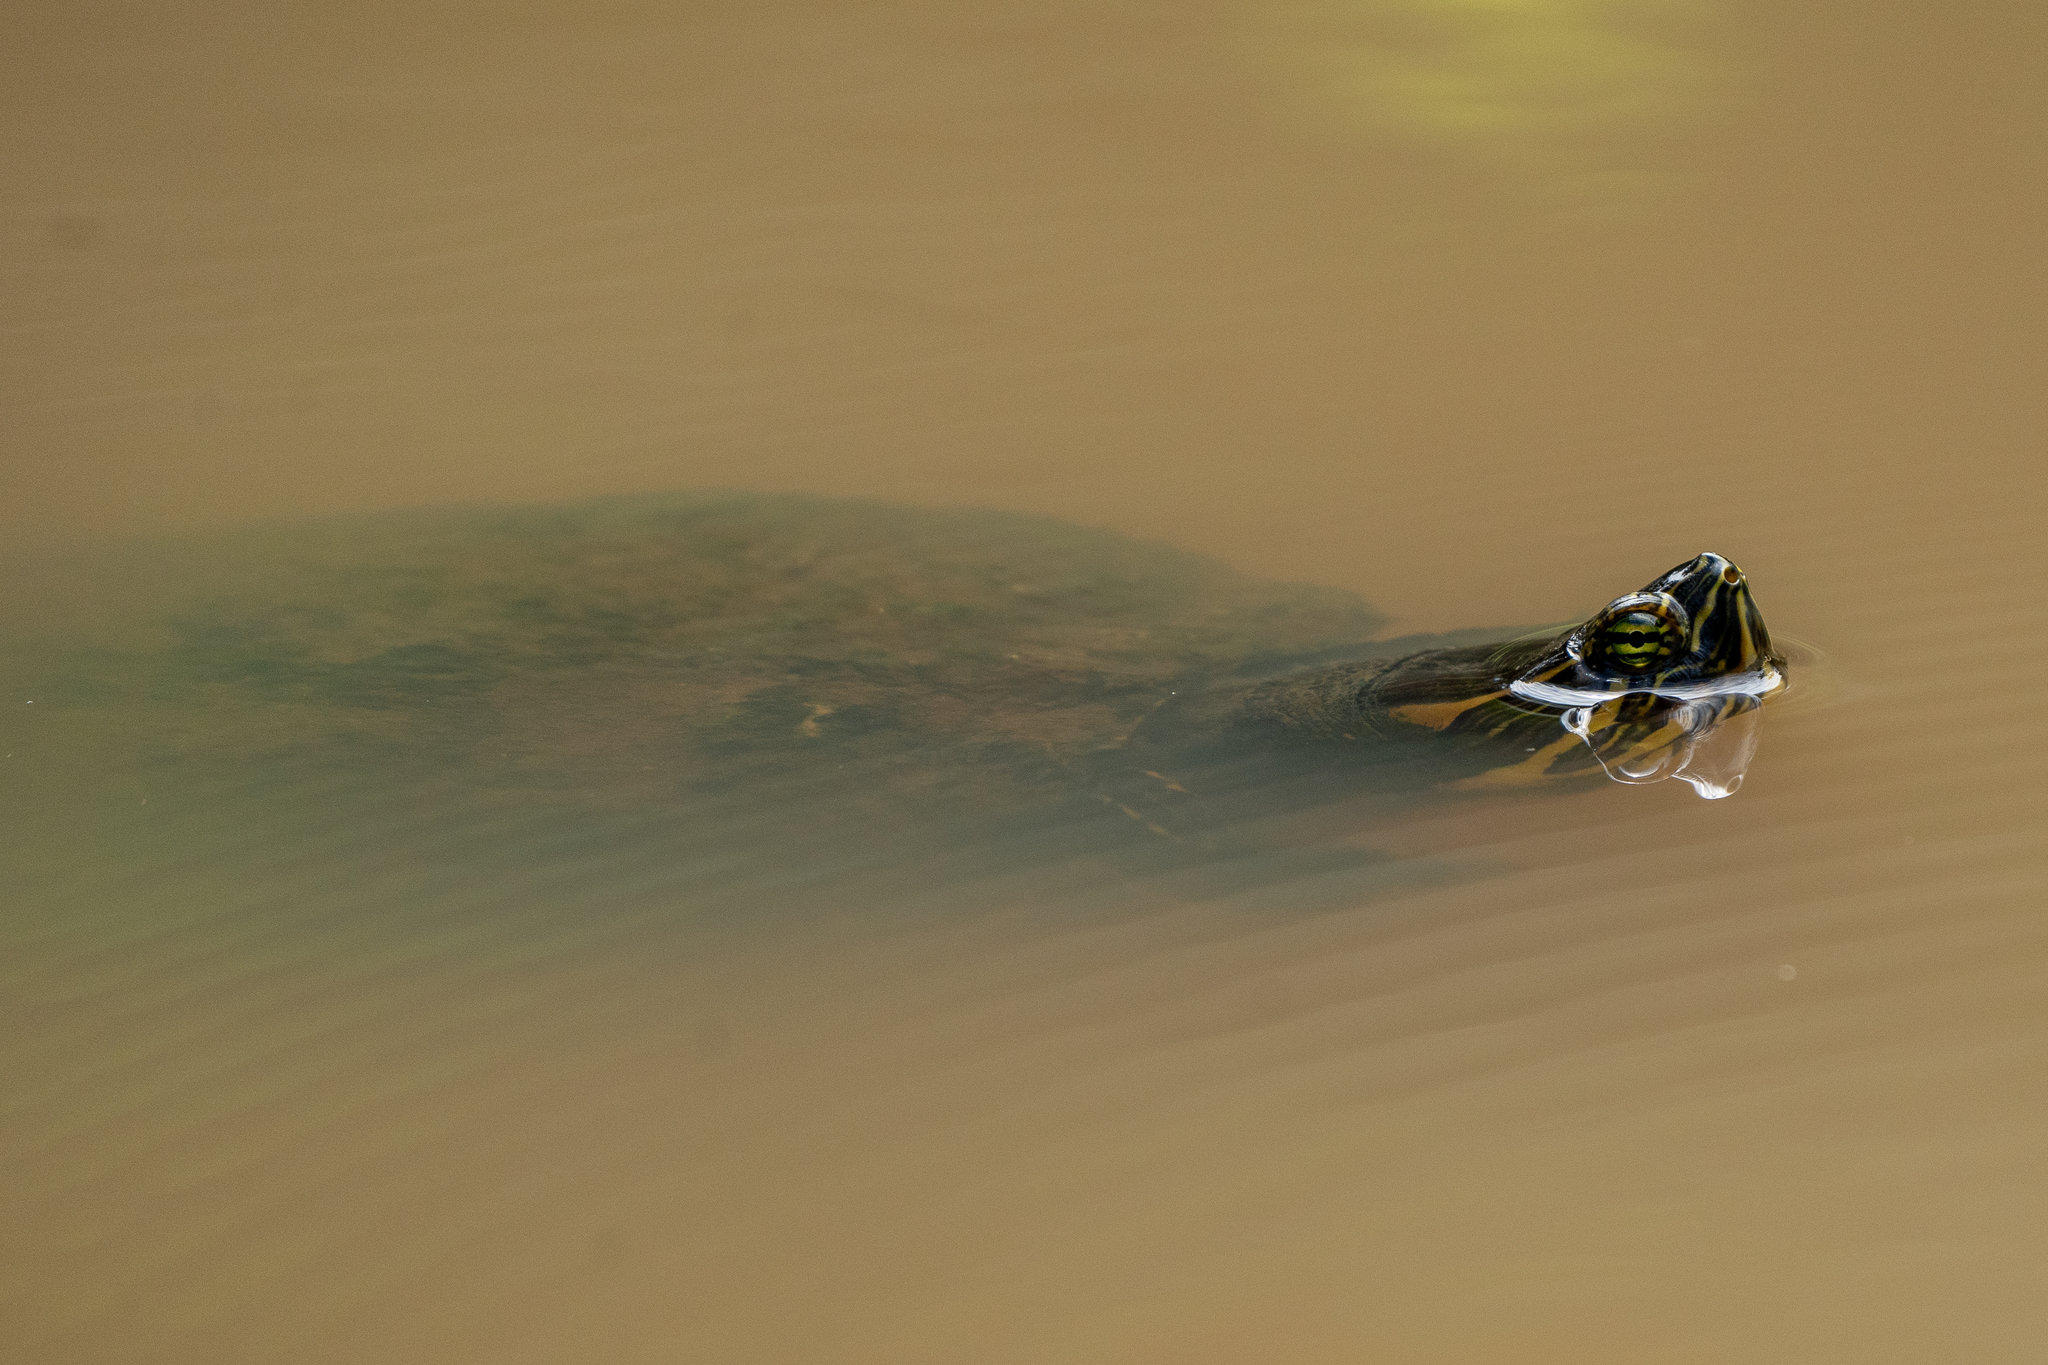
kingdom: Animalia
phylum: Chordata
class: Testudines
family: Emydidae
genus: Trachemys
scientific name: Trachemys scripta
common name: Slider
